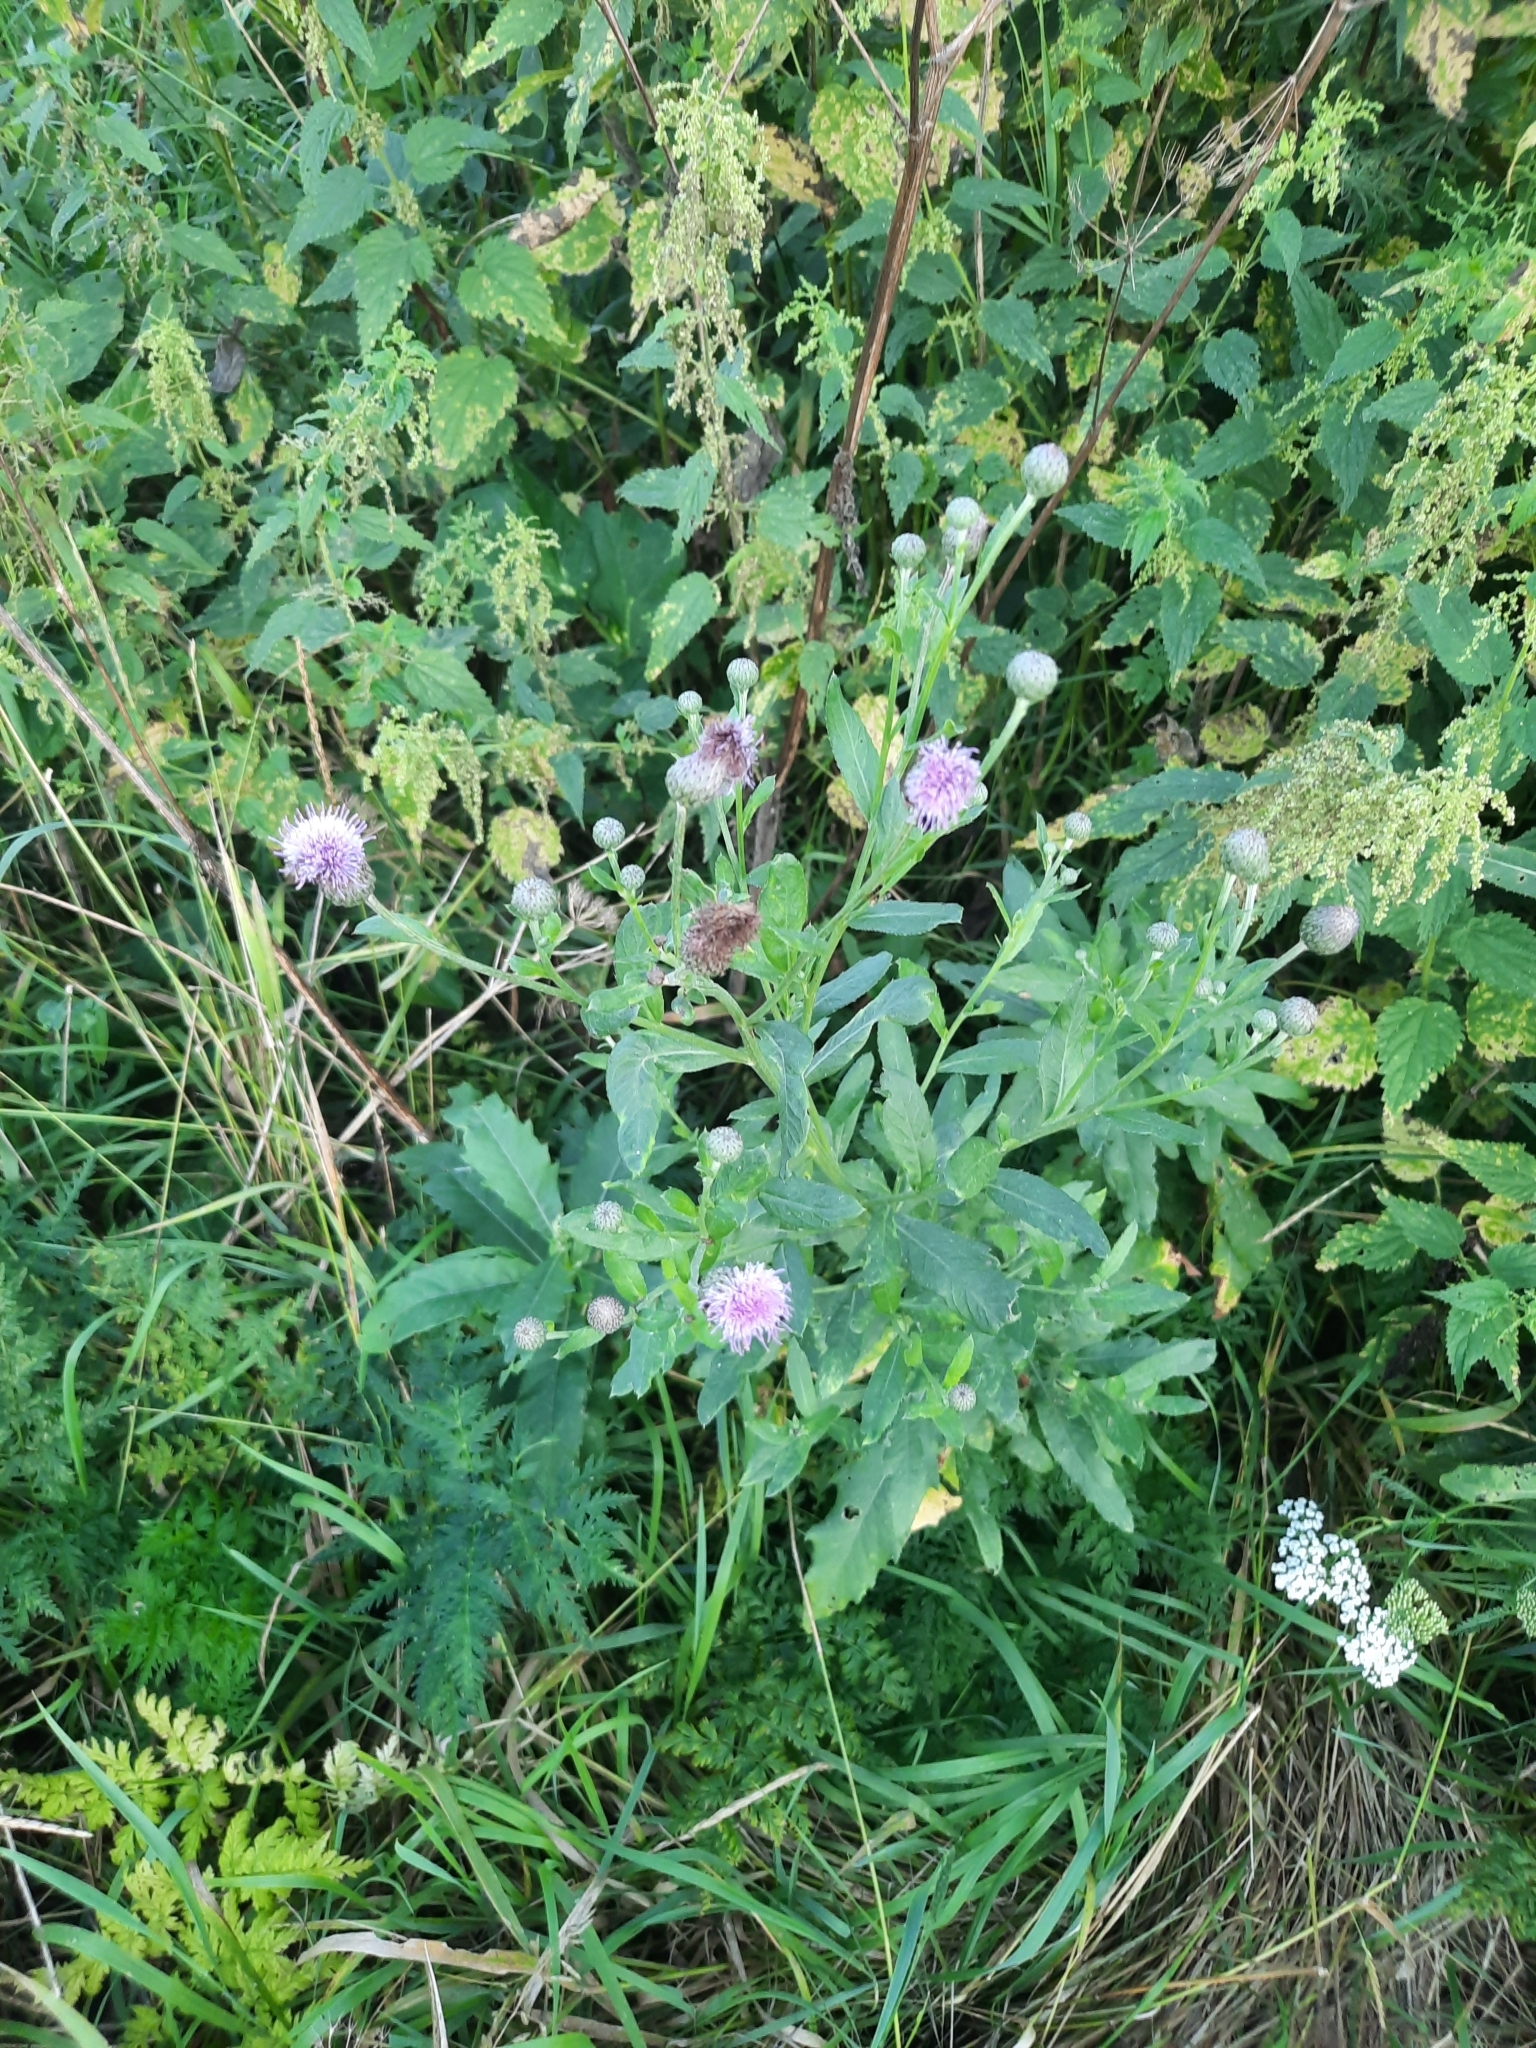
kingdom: Plantae
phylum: Tracheophyta
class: Magnoliopsida
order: Asterales
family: Asteraceae
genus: Cirsium
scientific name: Cirsium arvense
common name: Creeping thistle
